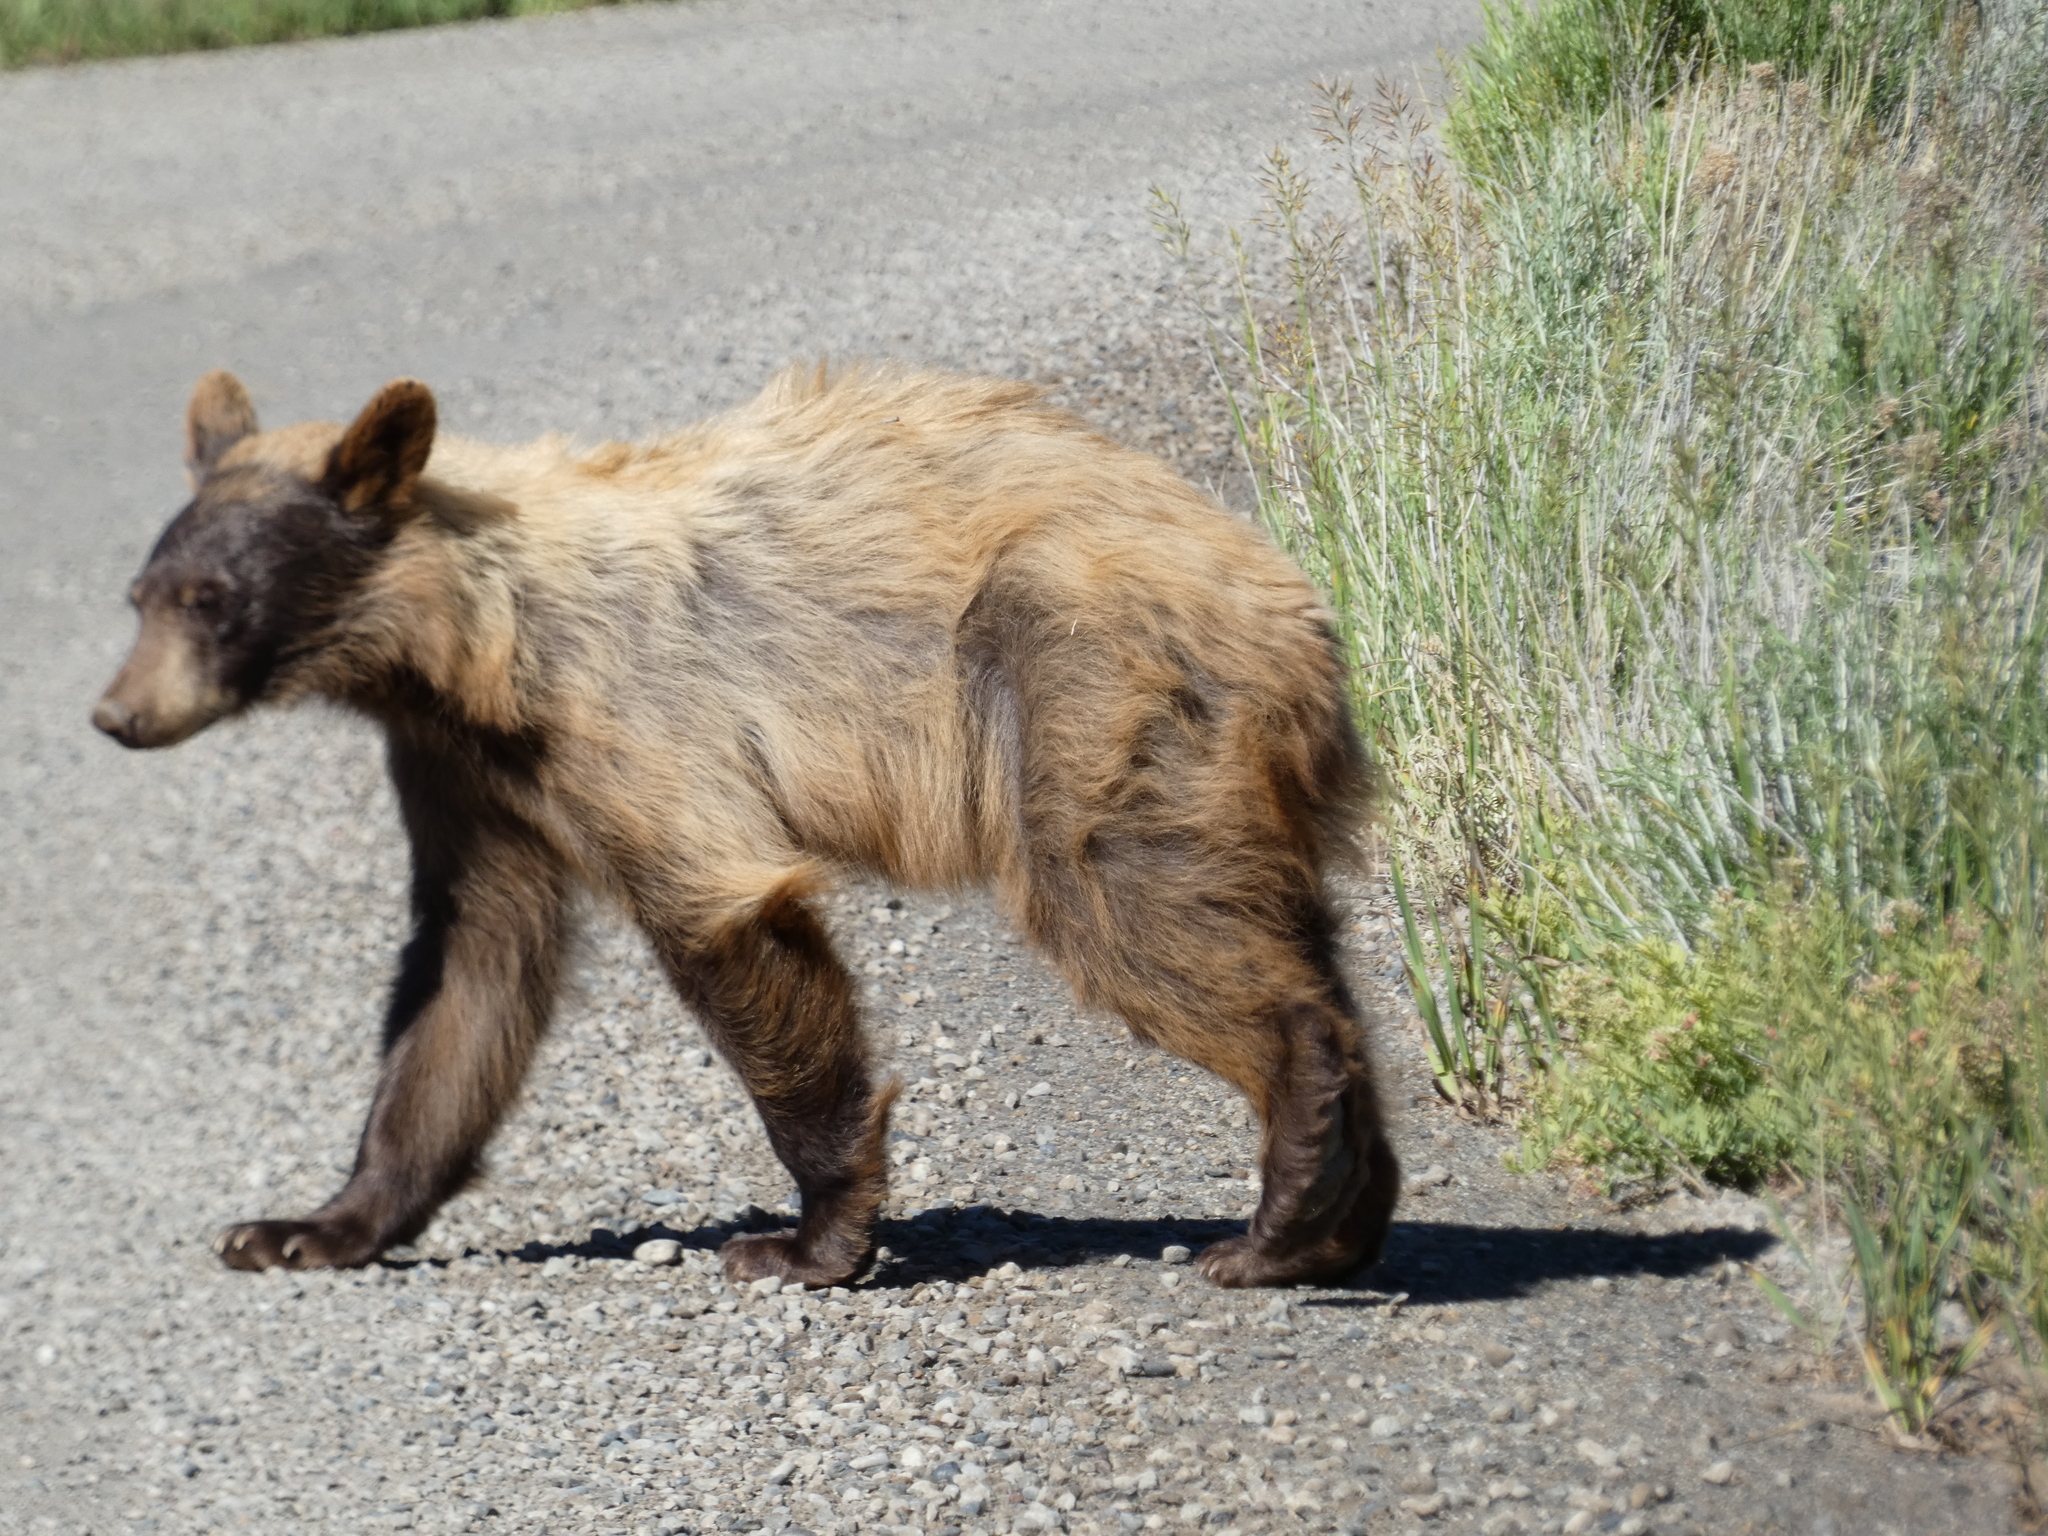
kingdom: Animalia
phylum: Chordata
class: Mammalia
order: Carnivora
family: Ursidae
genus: Ursus
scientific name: Ursus americanus
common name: American black bear
